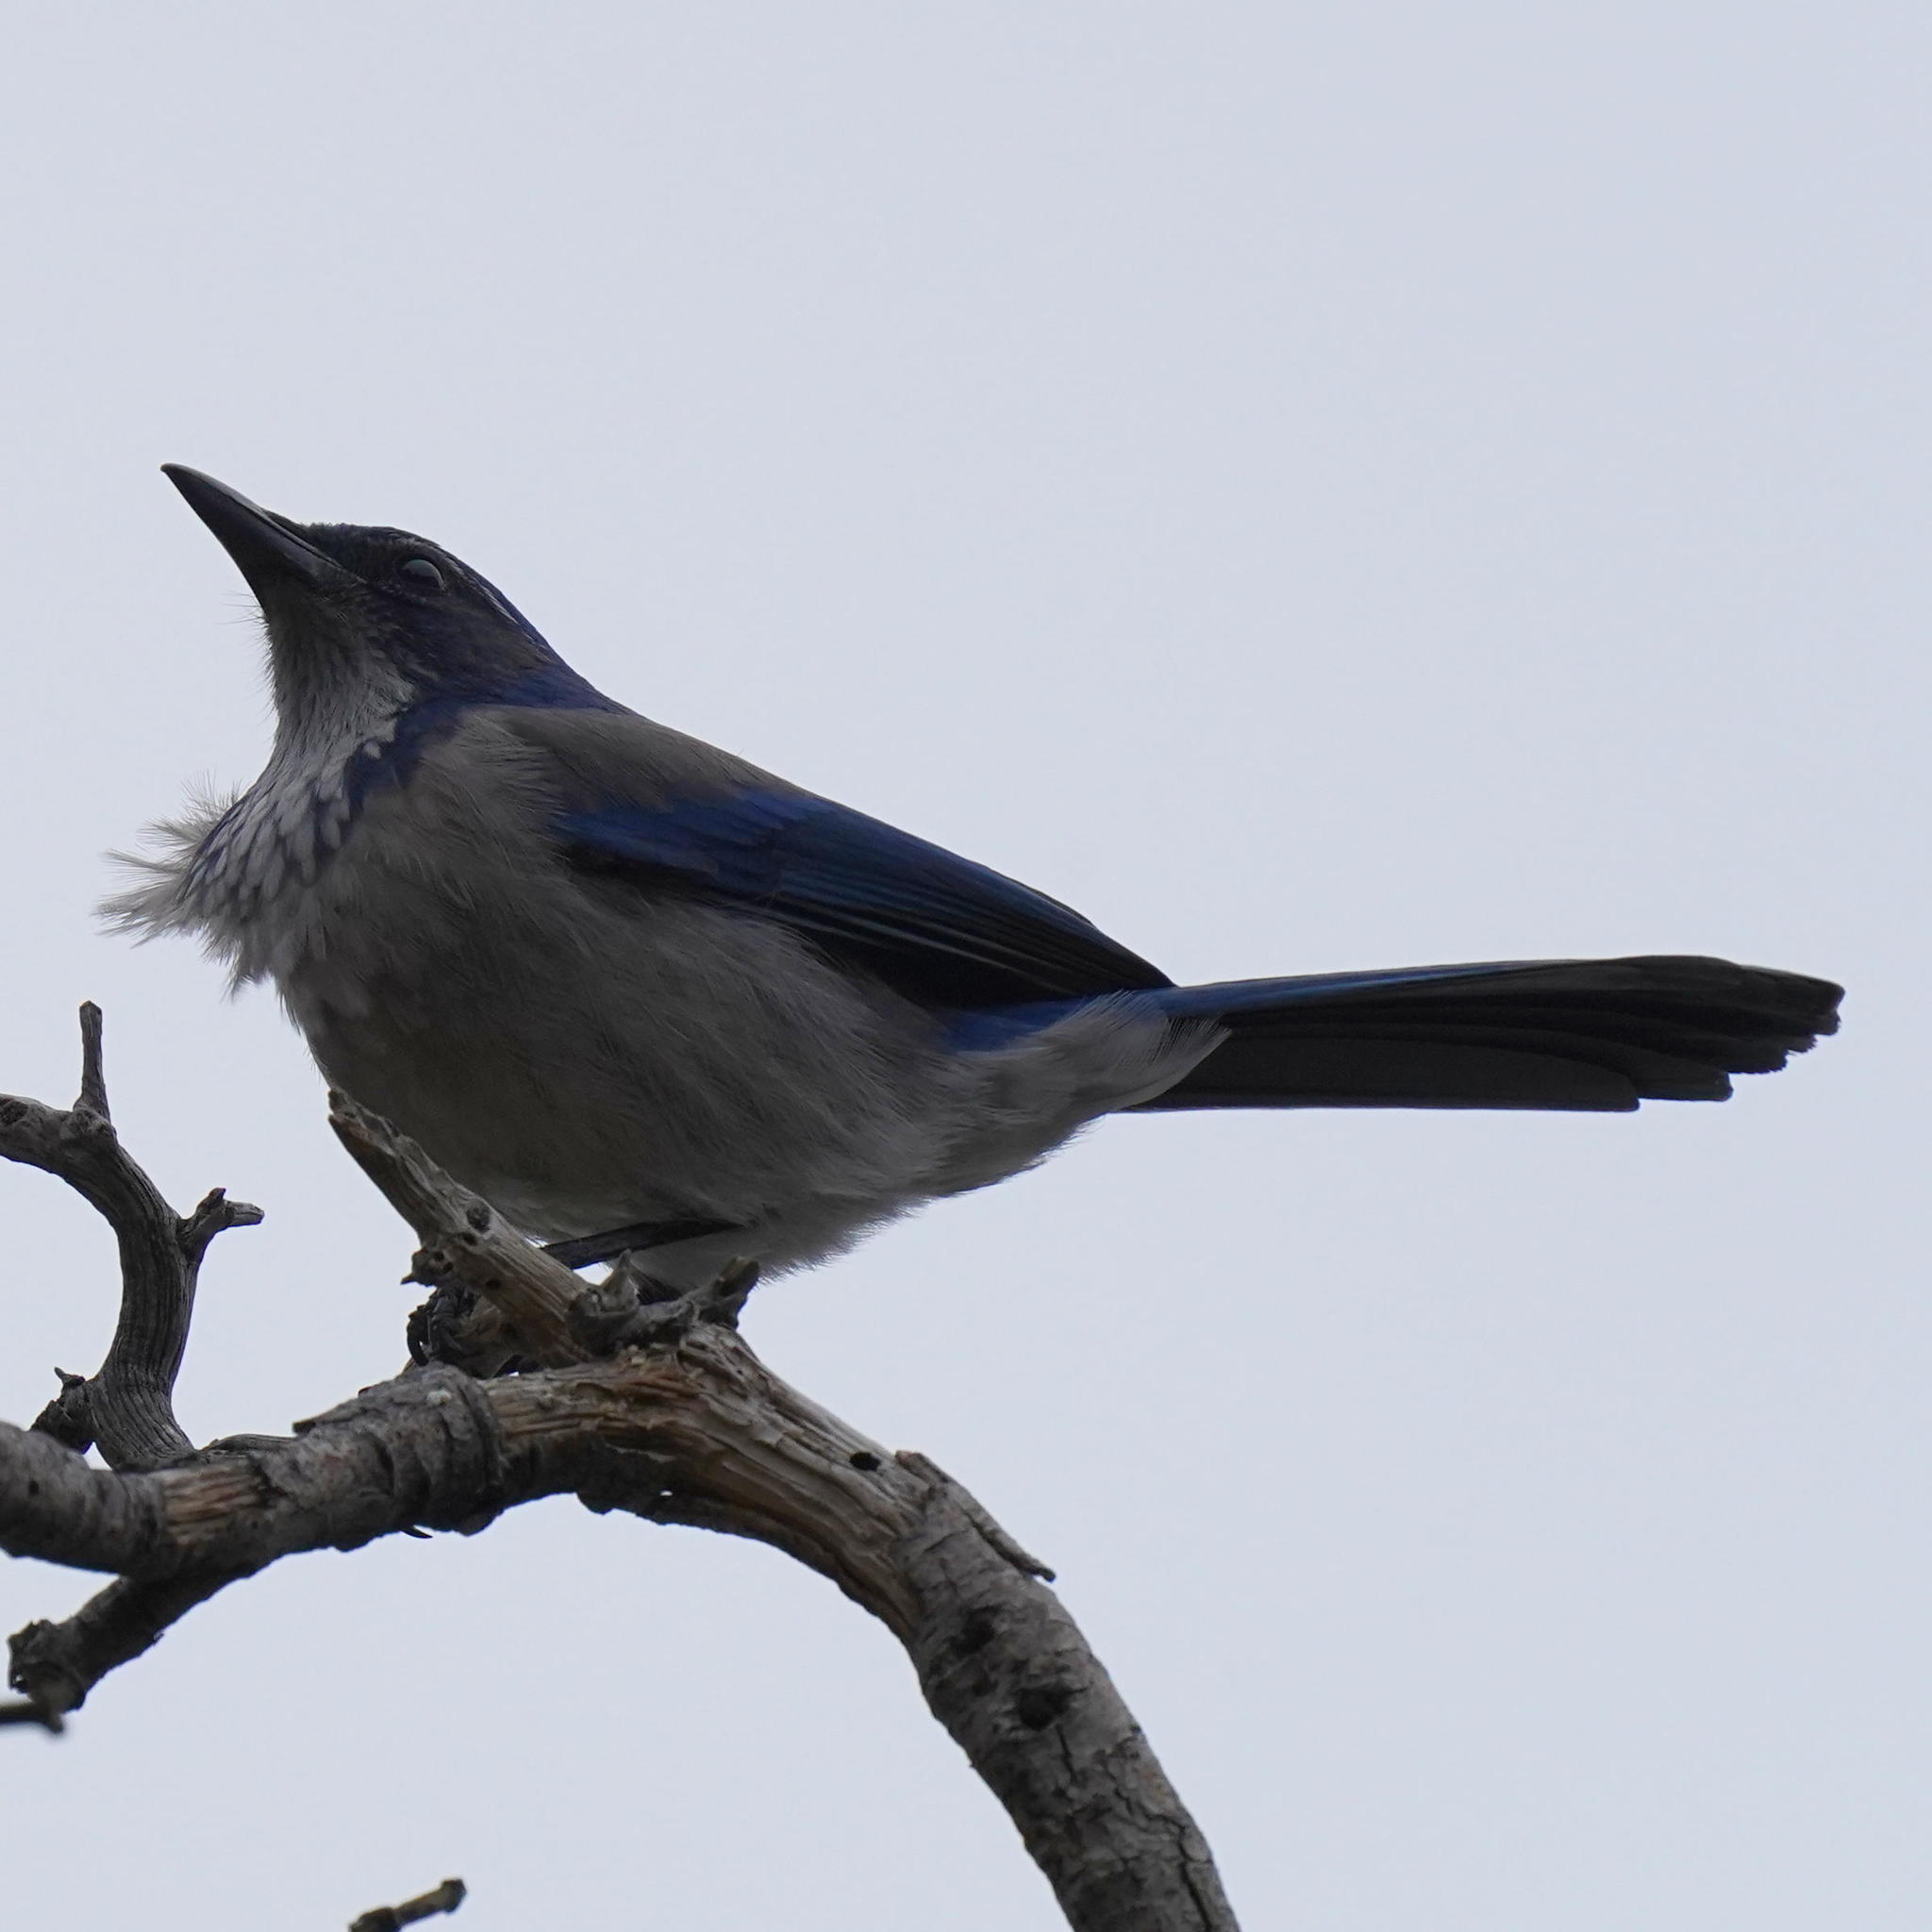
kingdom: Animalia
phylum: Chordata
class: Aves
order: Passeriformes
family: Corvidae
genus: Aphelocoma
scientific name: Aphelocoma californica
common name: California scrub-jay
